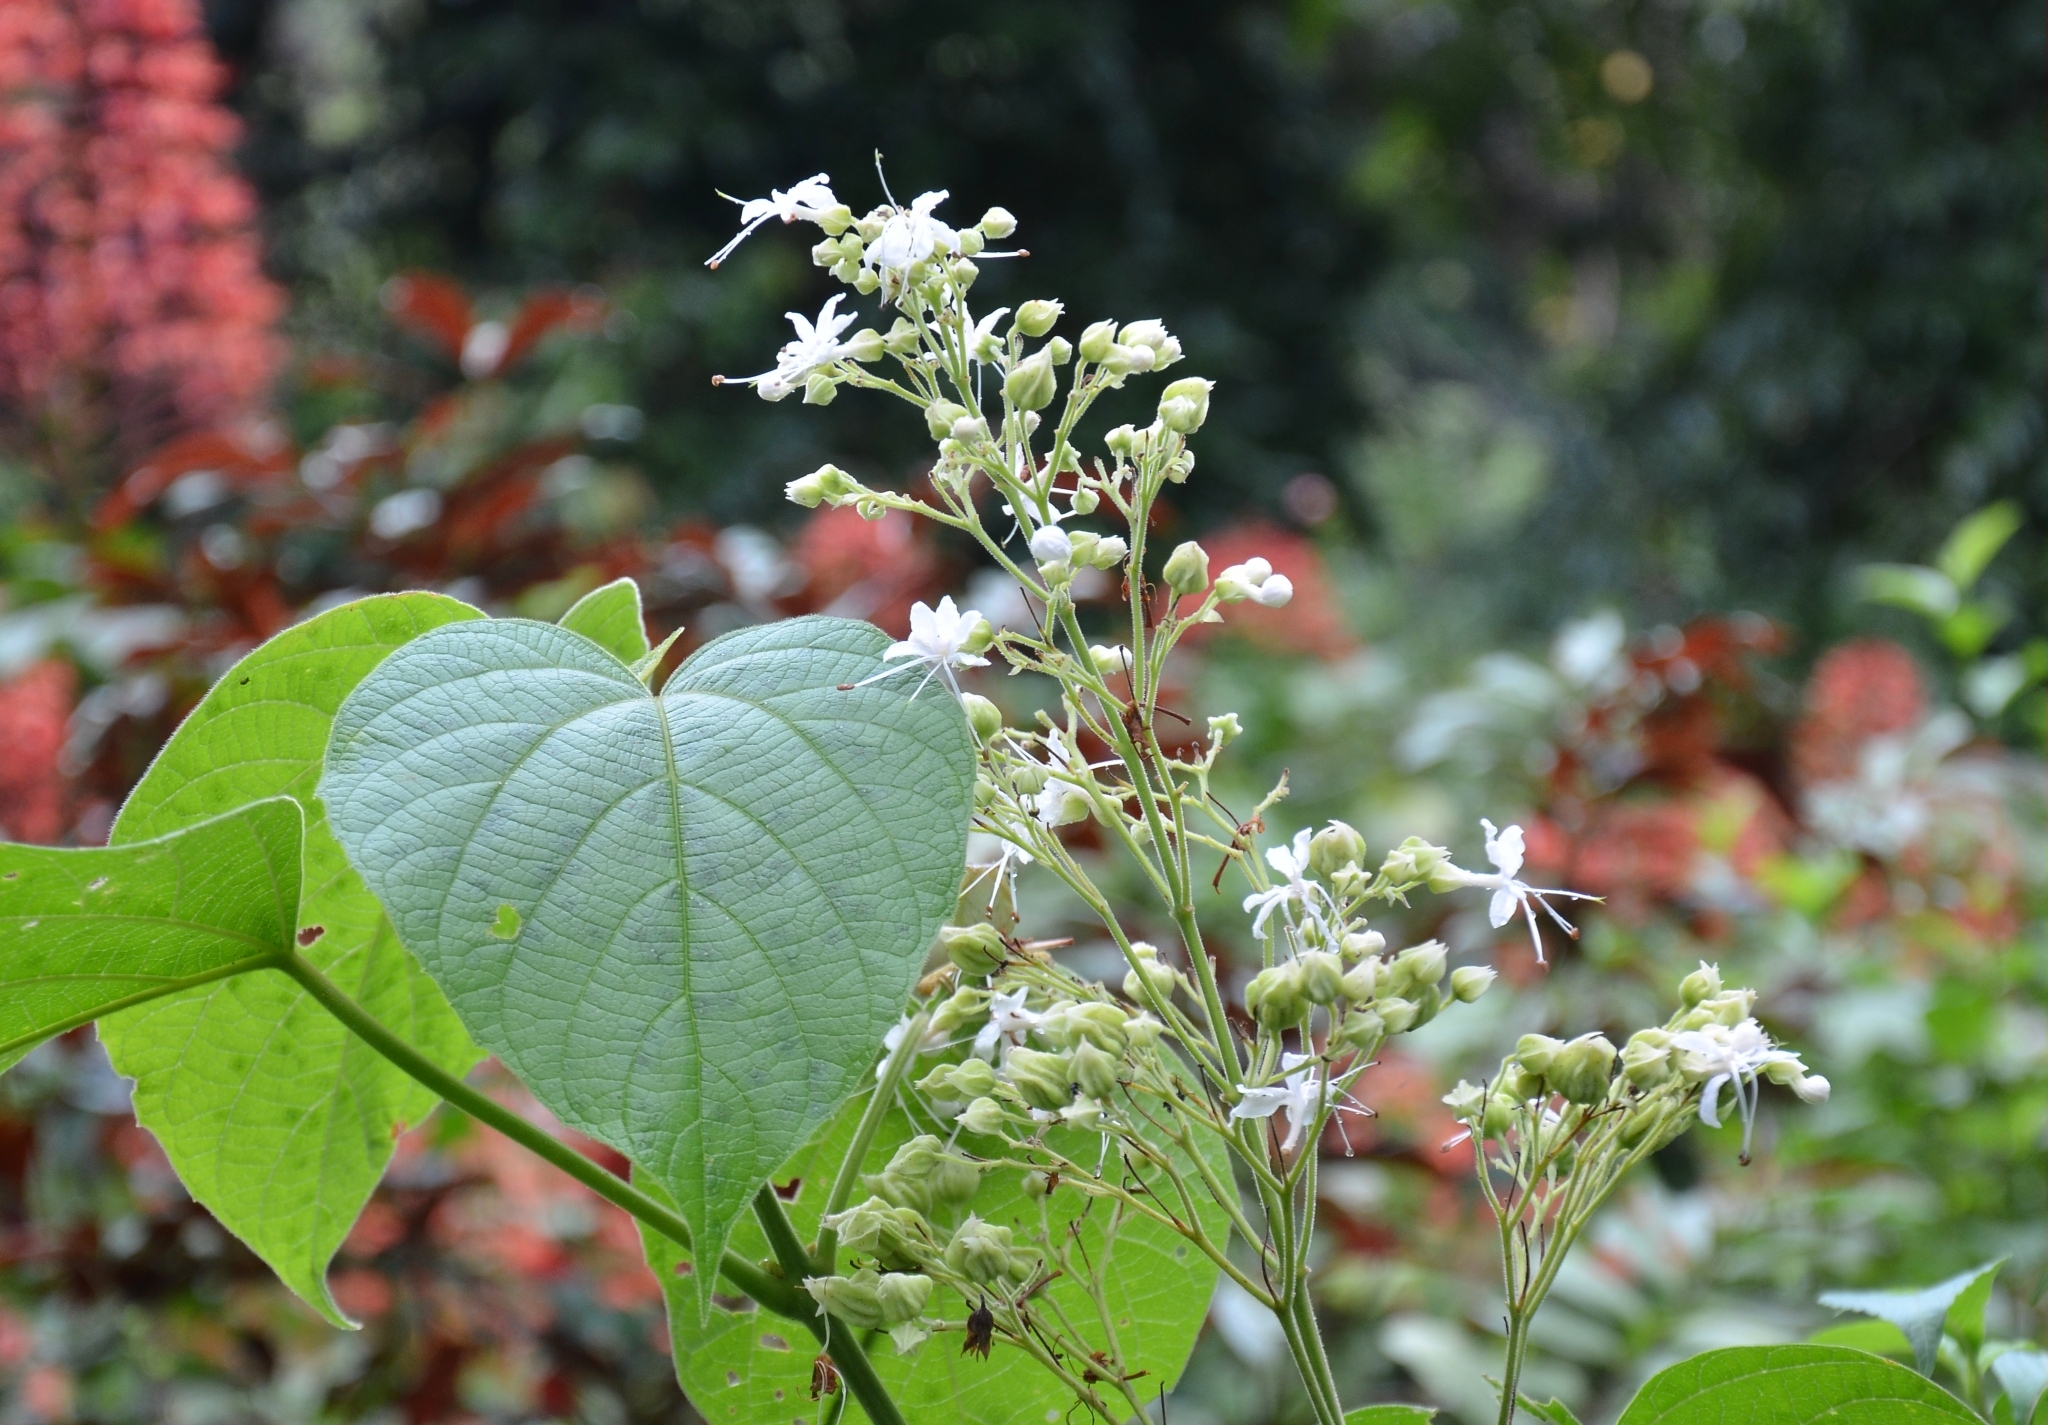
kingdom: Plantae
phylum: Tracheophyta
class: Magnoliopsida
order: Lamiales
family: Lamiaceae
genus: Clerodendrum
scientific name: Clerodendrum infortunatum
